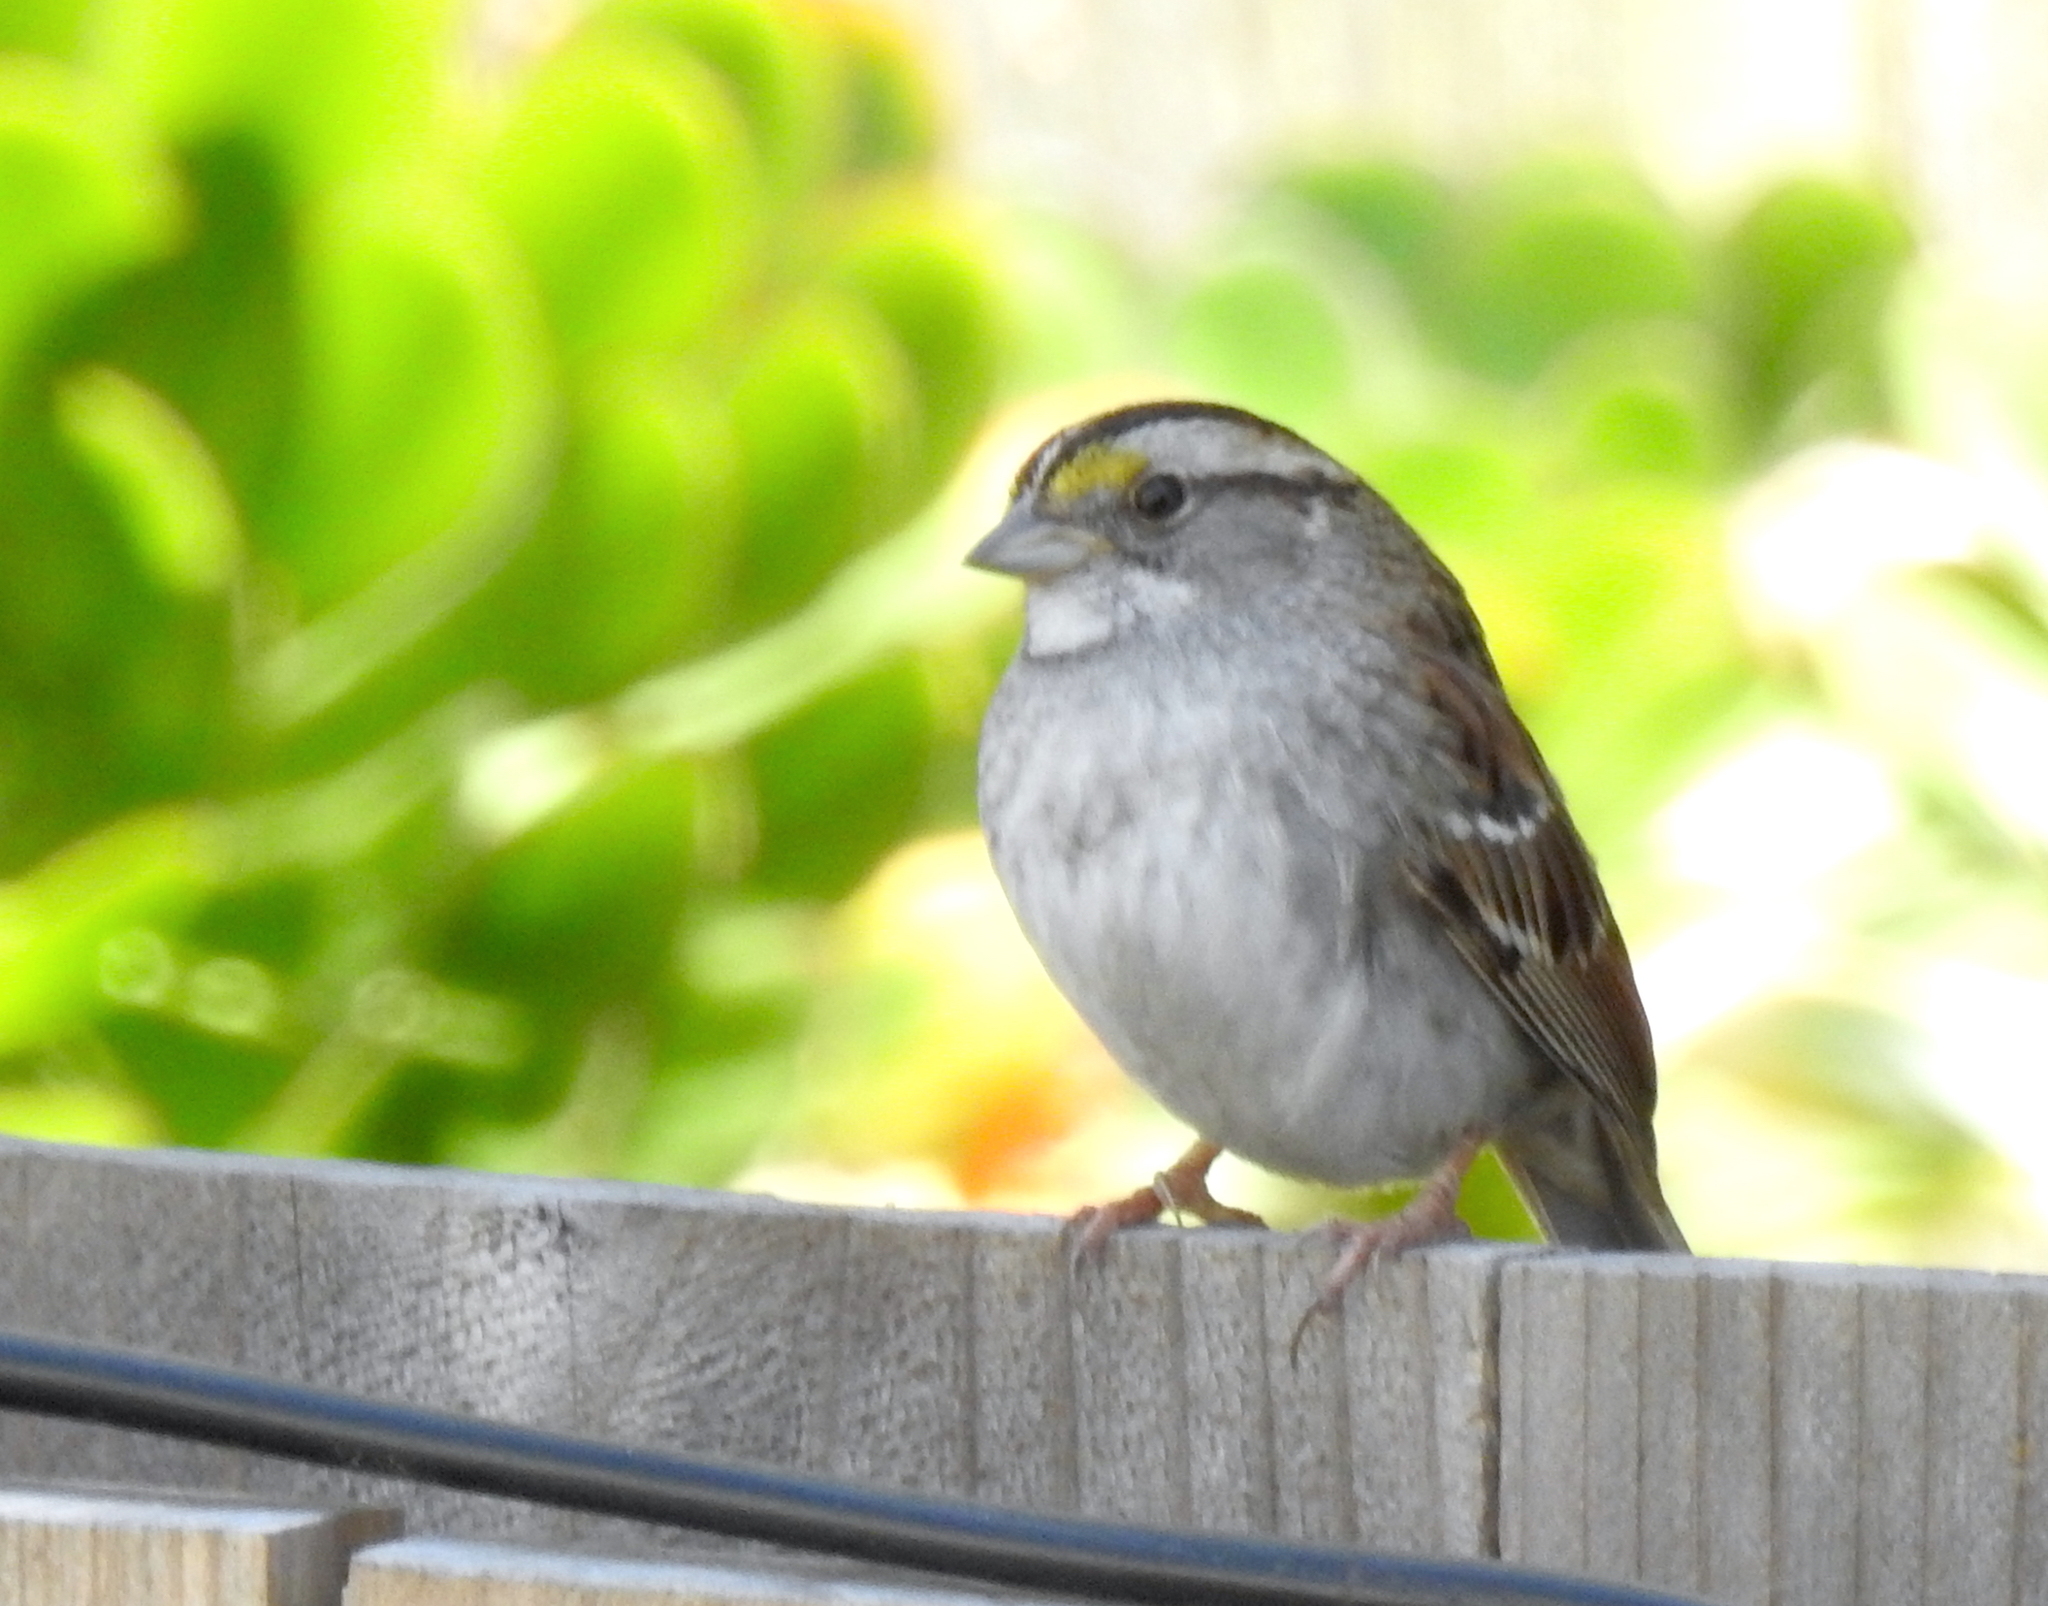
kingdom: Animalia
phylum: Chordata
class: Aves
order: Passeriformes
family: Passerellidae
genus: Zonotrichia
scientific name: Zonotrichia albicollis
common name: White-throated sparrow
